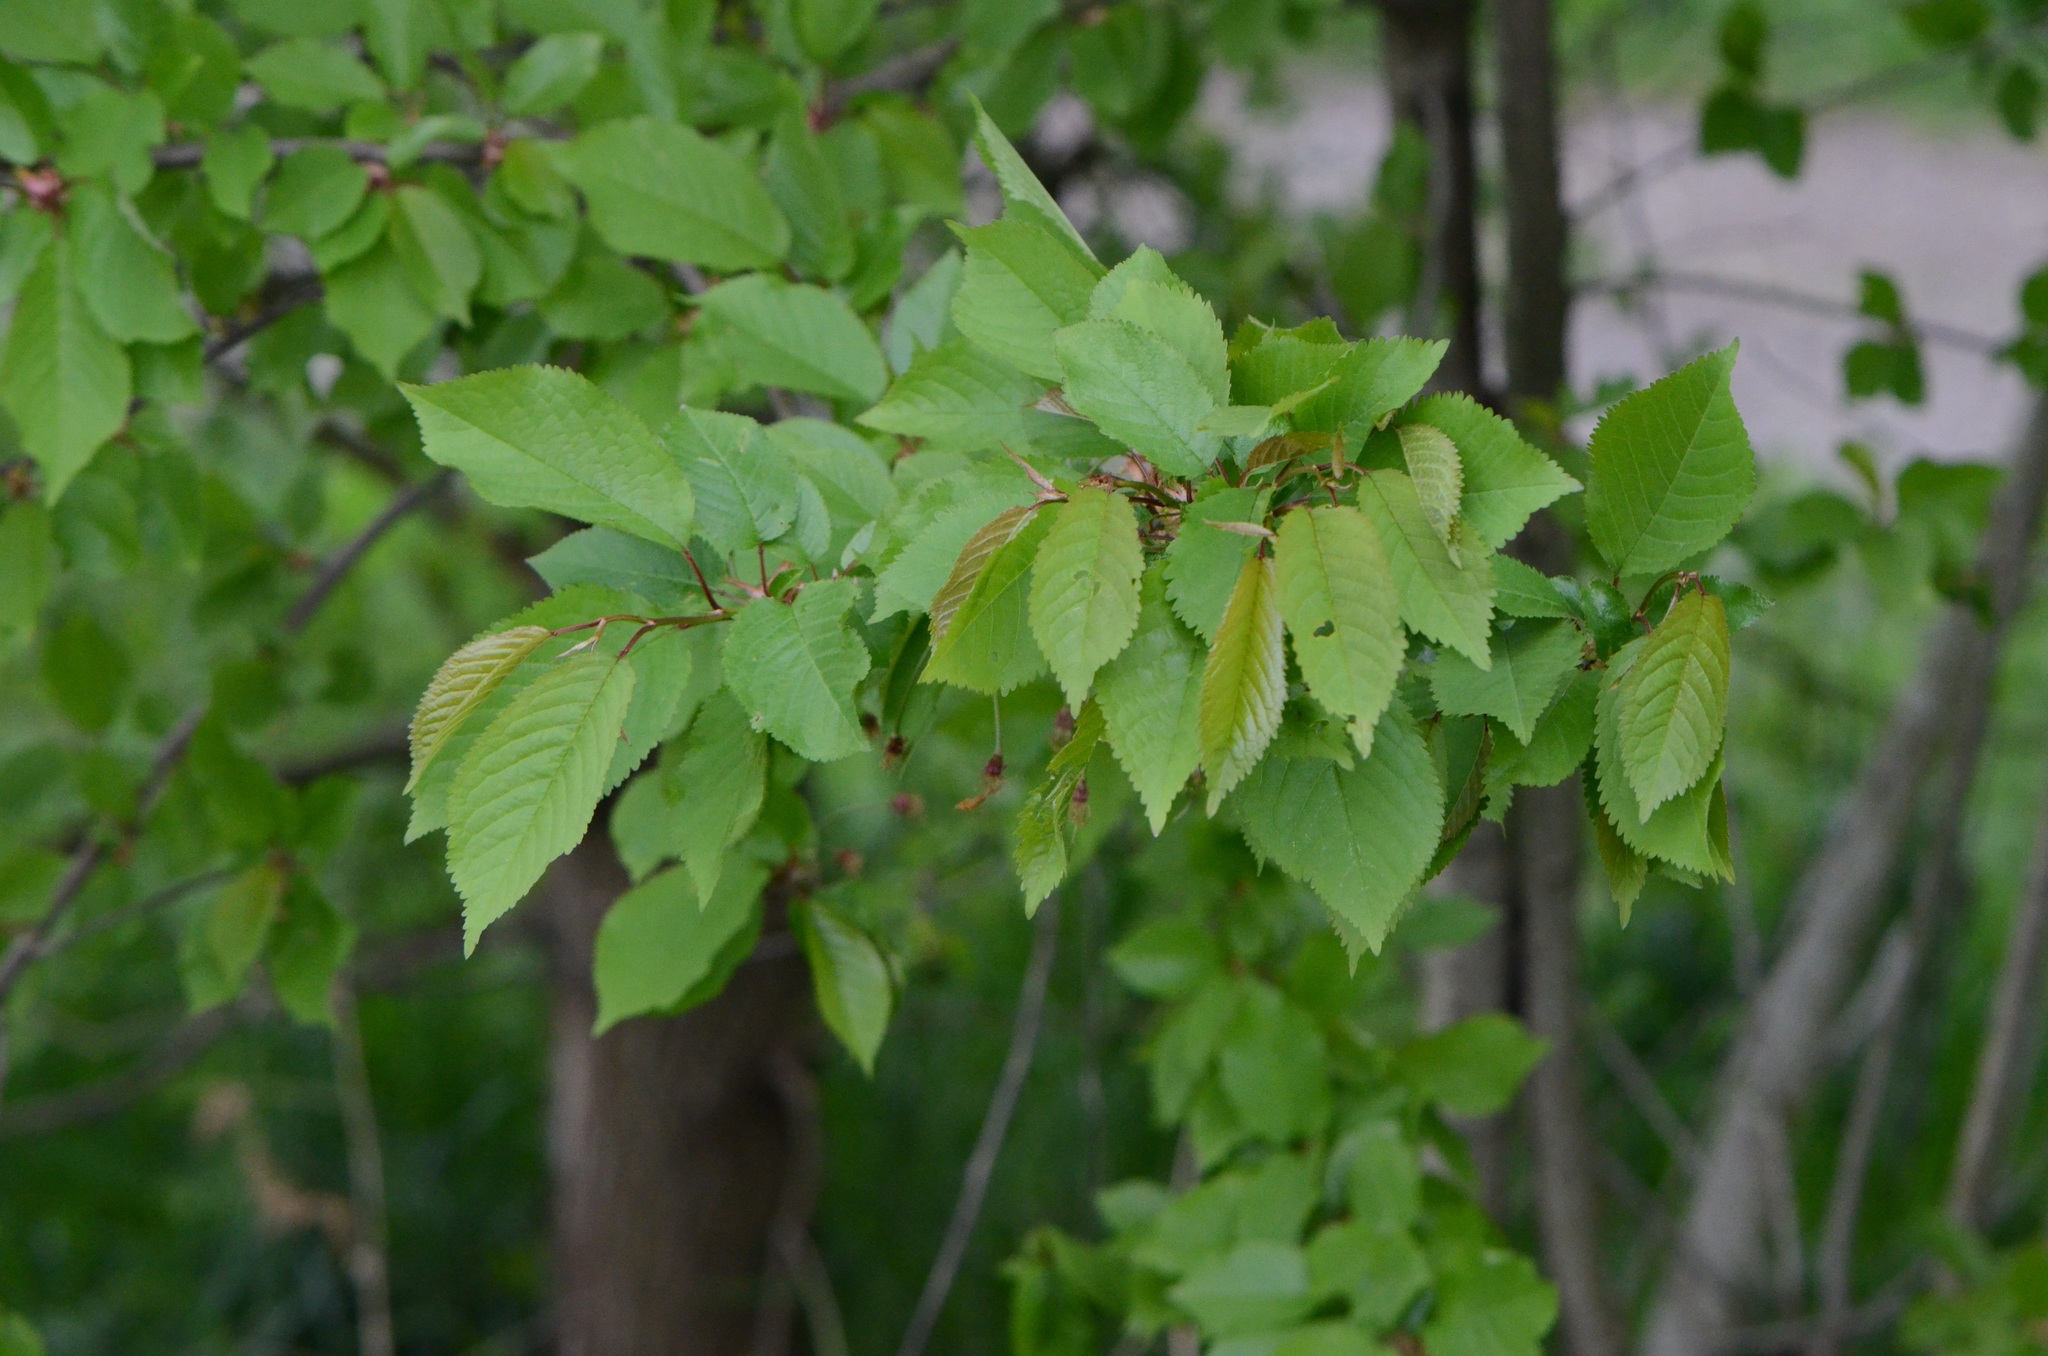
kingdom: Plantae
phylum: Tracheophyta
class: Magnoliopsida
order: Rosales
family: Rosaceae
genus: Prunus
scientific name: Prunus avium
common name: Sweet cherry
